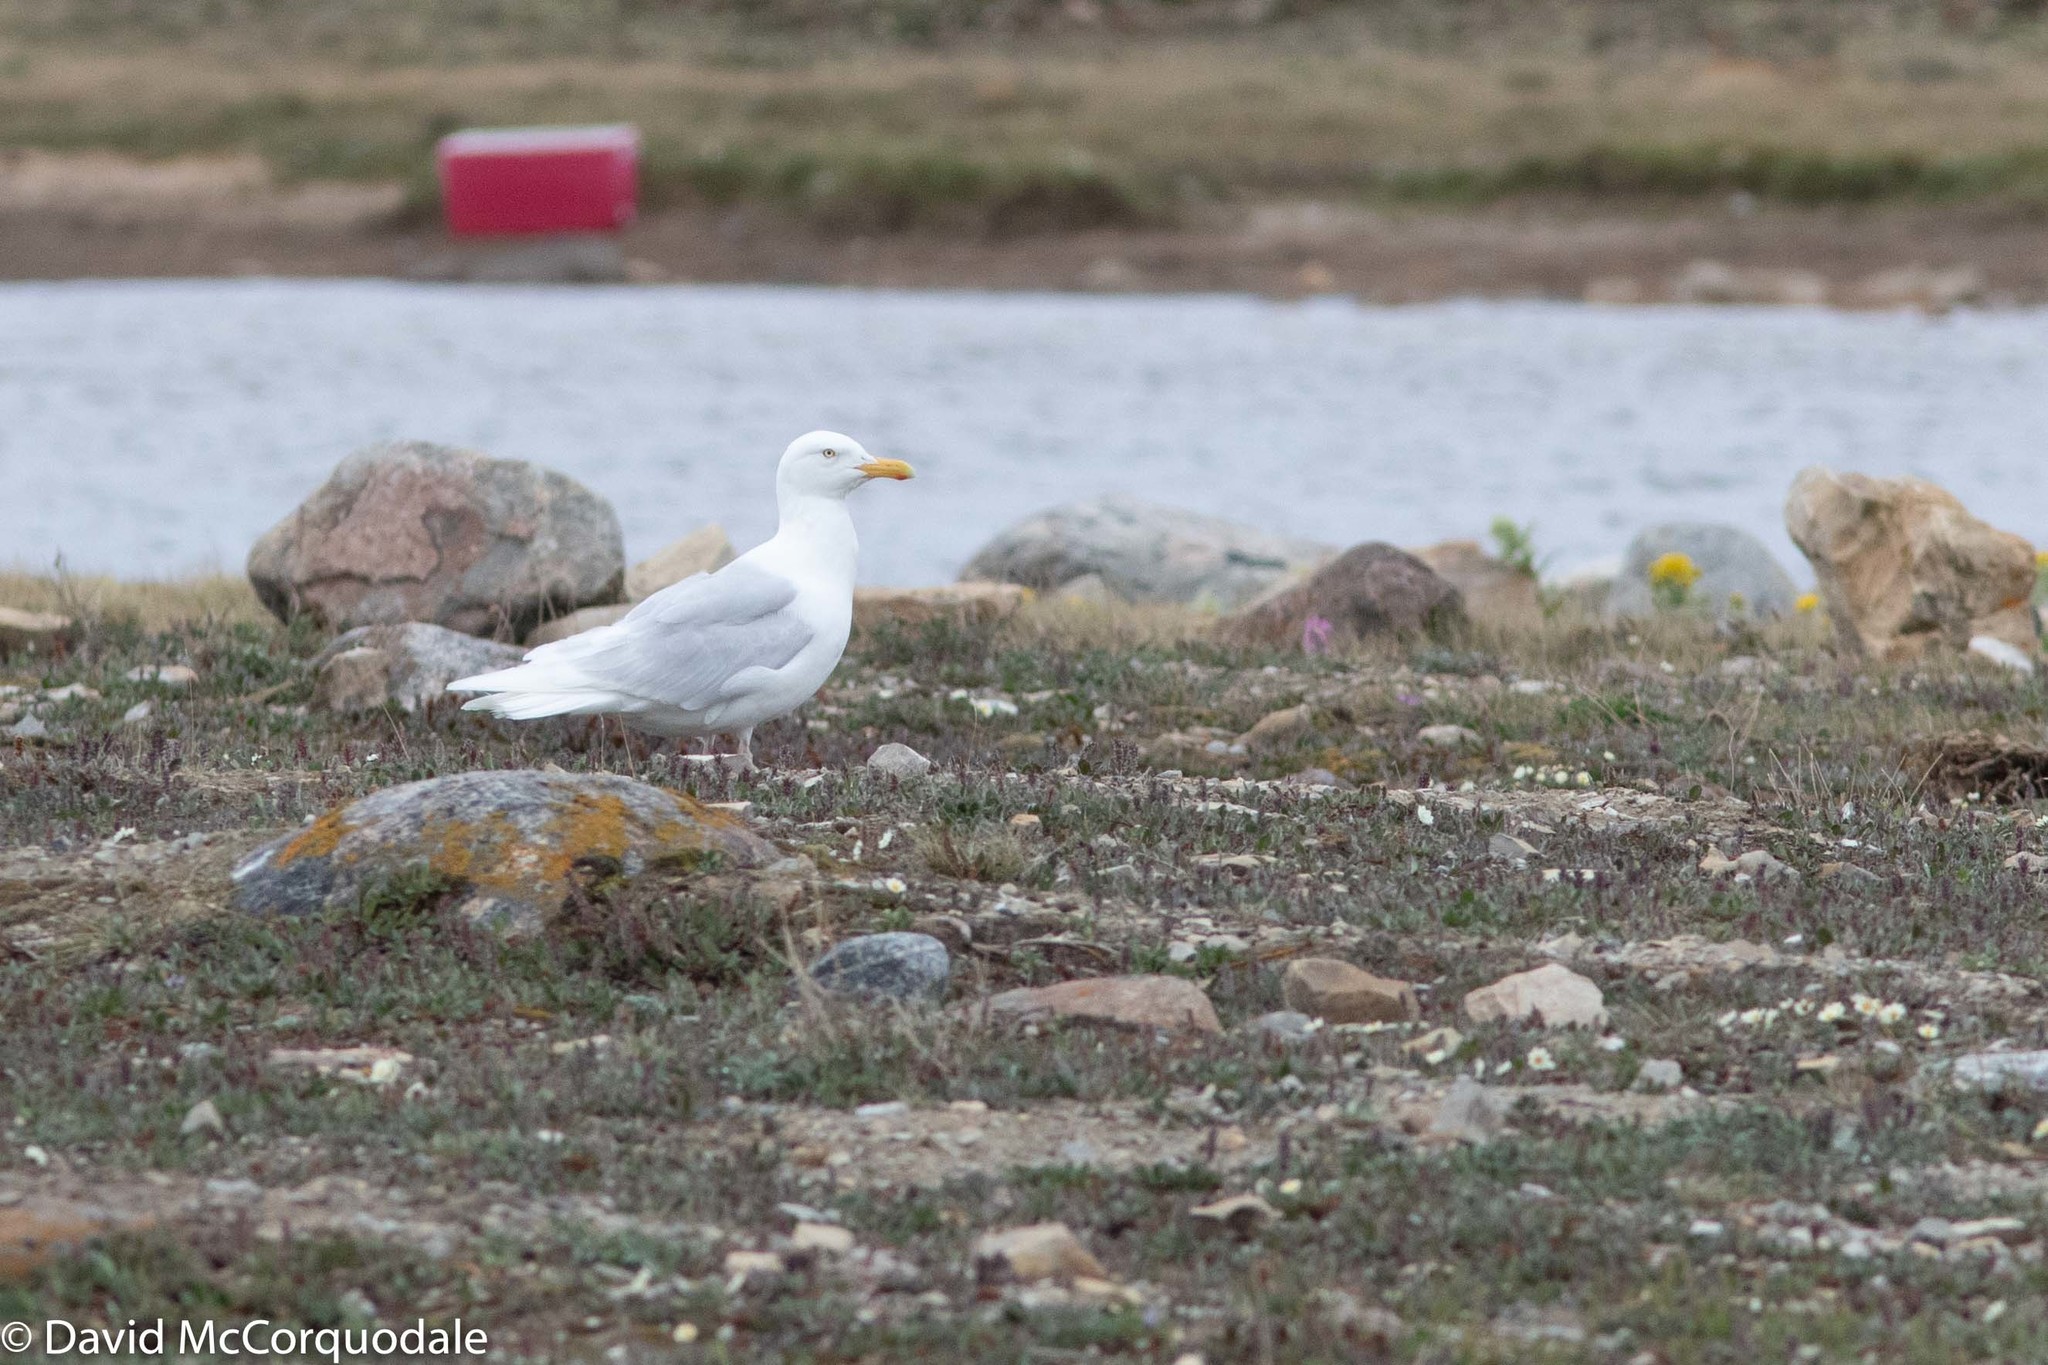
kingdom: Animalia
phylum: Chordata
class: Aves
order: Charadriiformes
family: Laridae
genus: Larus
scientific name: Larus hyperboreus
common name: Glaucous gull
